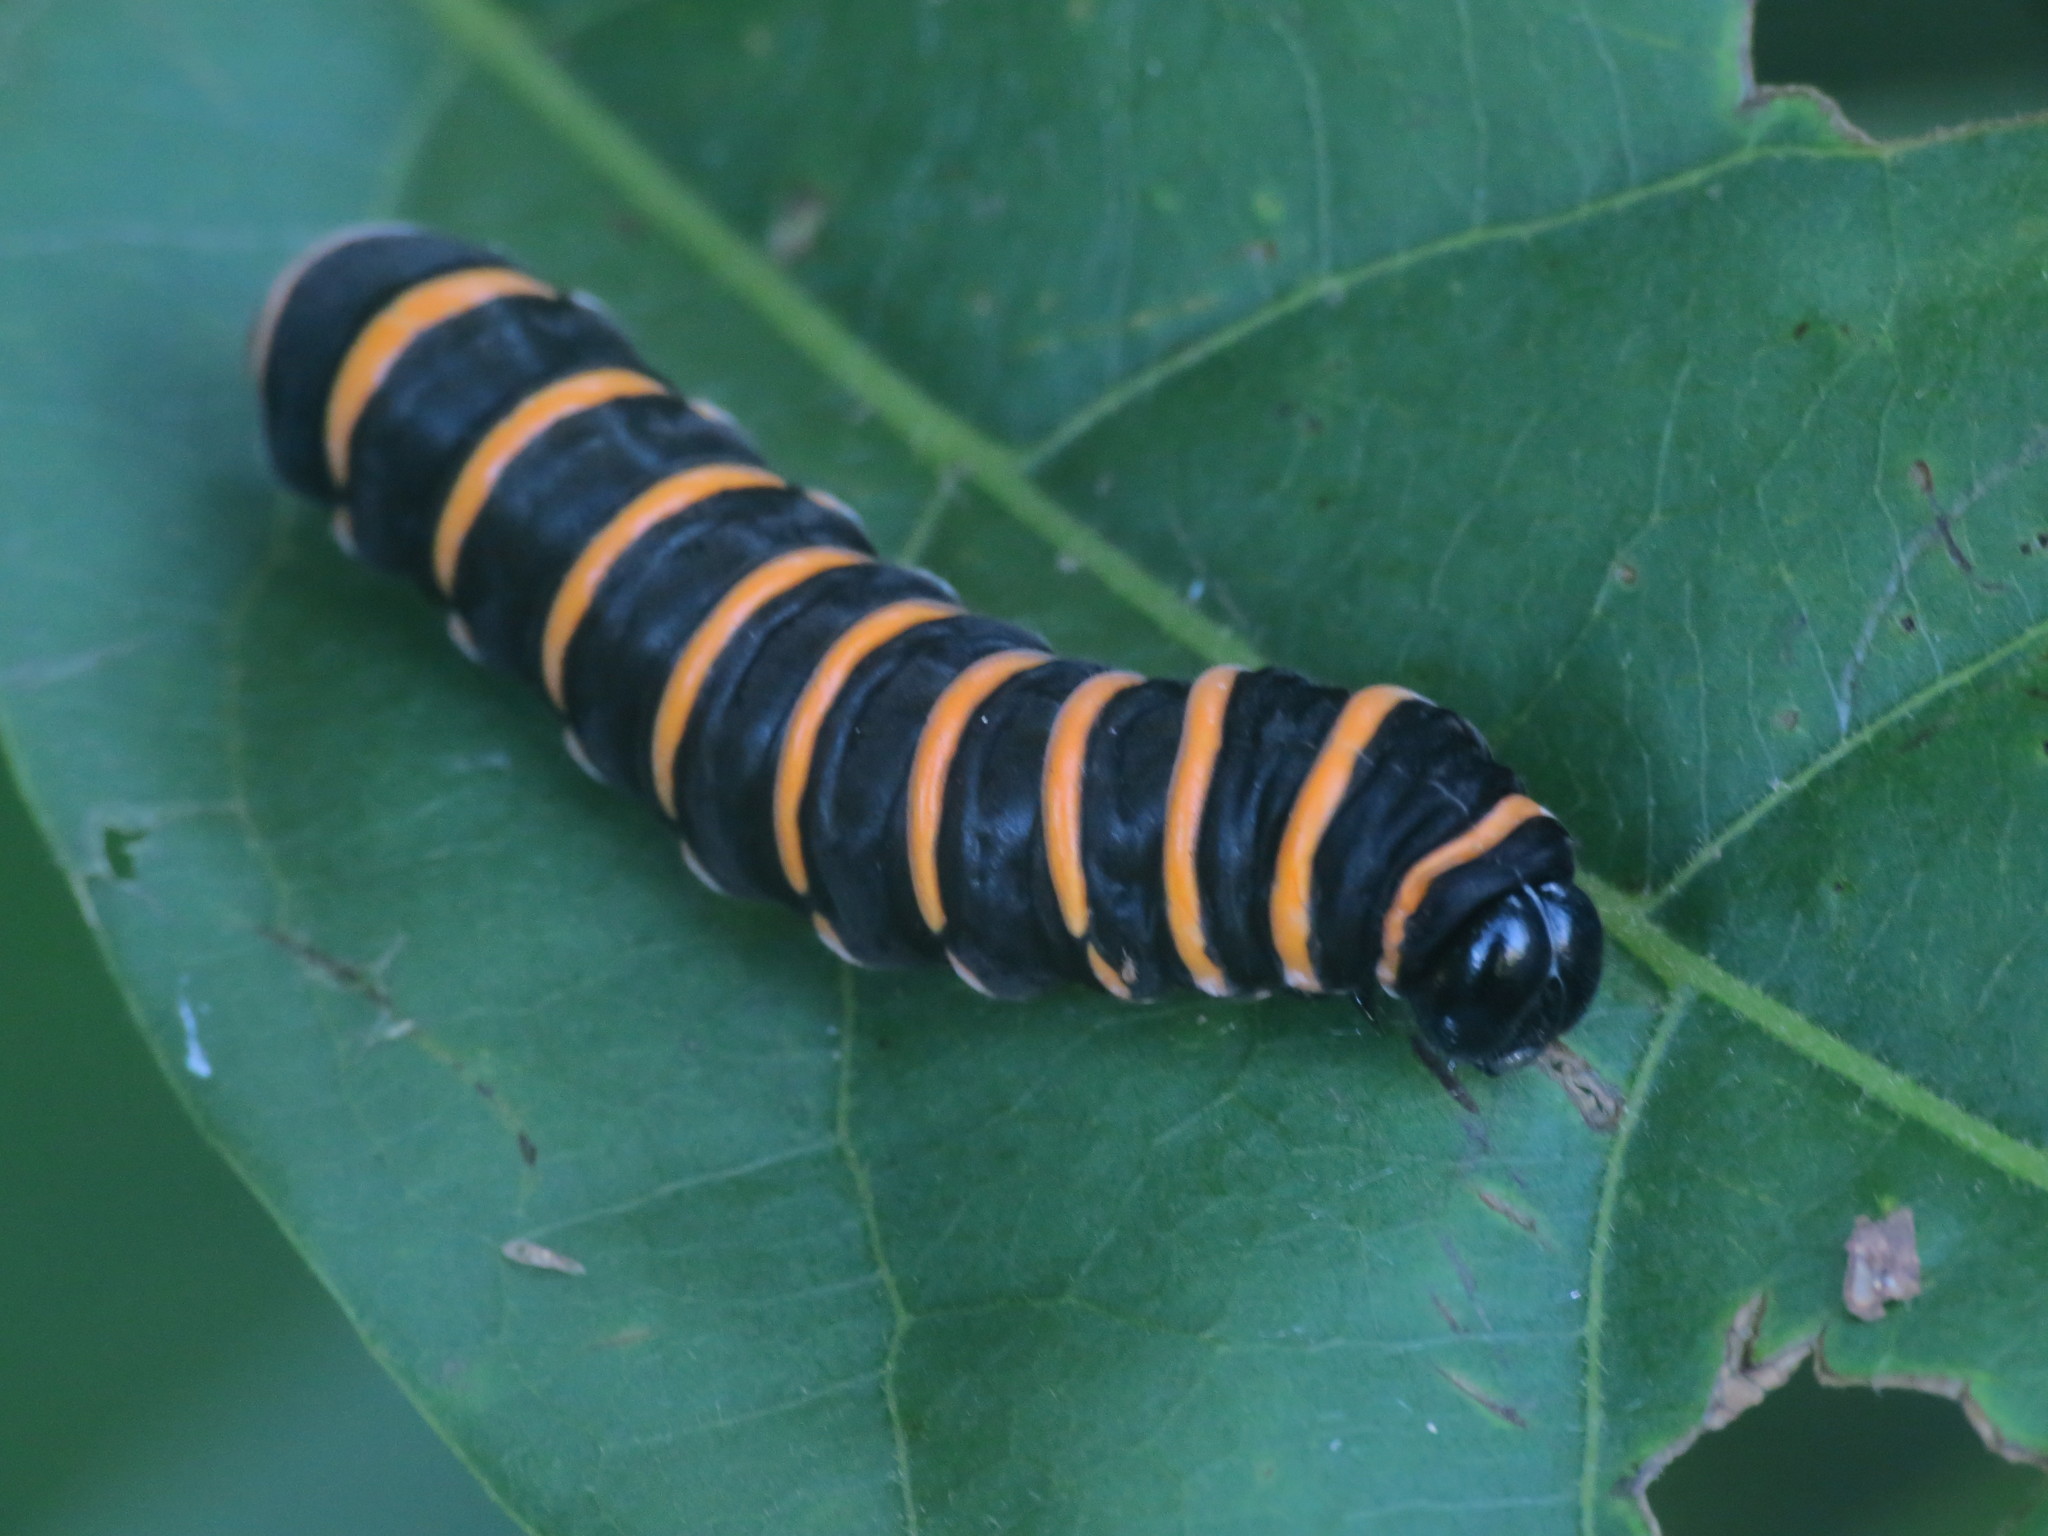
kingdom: Animalia
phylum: Arthropoda
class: Insecta
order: Lepidoptera
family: Nymphalidae
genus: Methona
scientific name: Methona themisto
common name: Themisto amberwing
